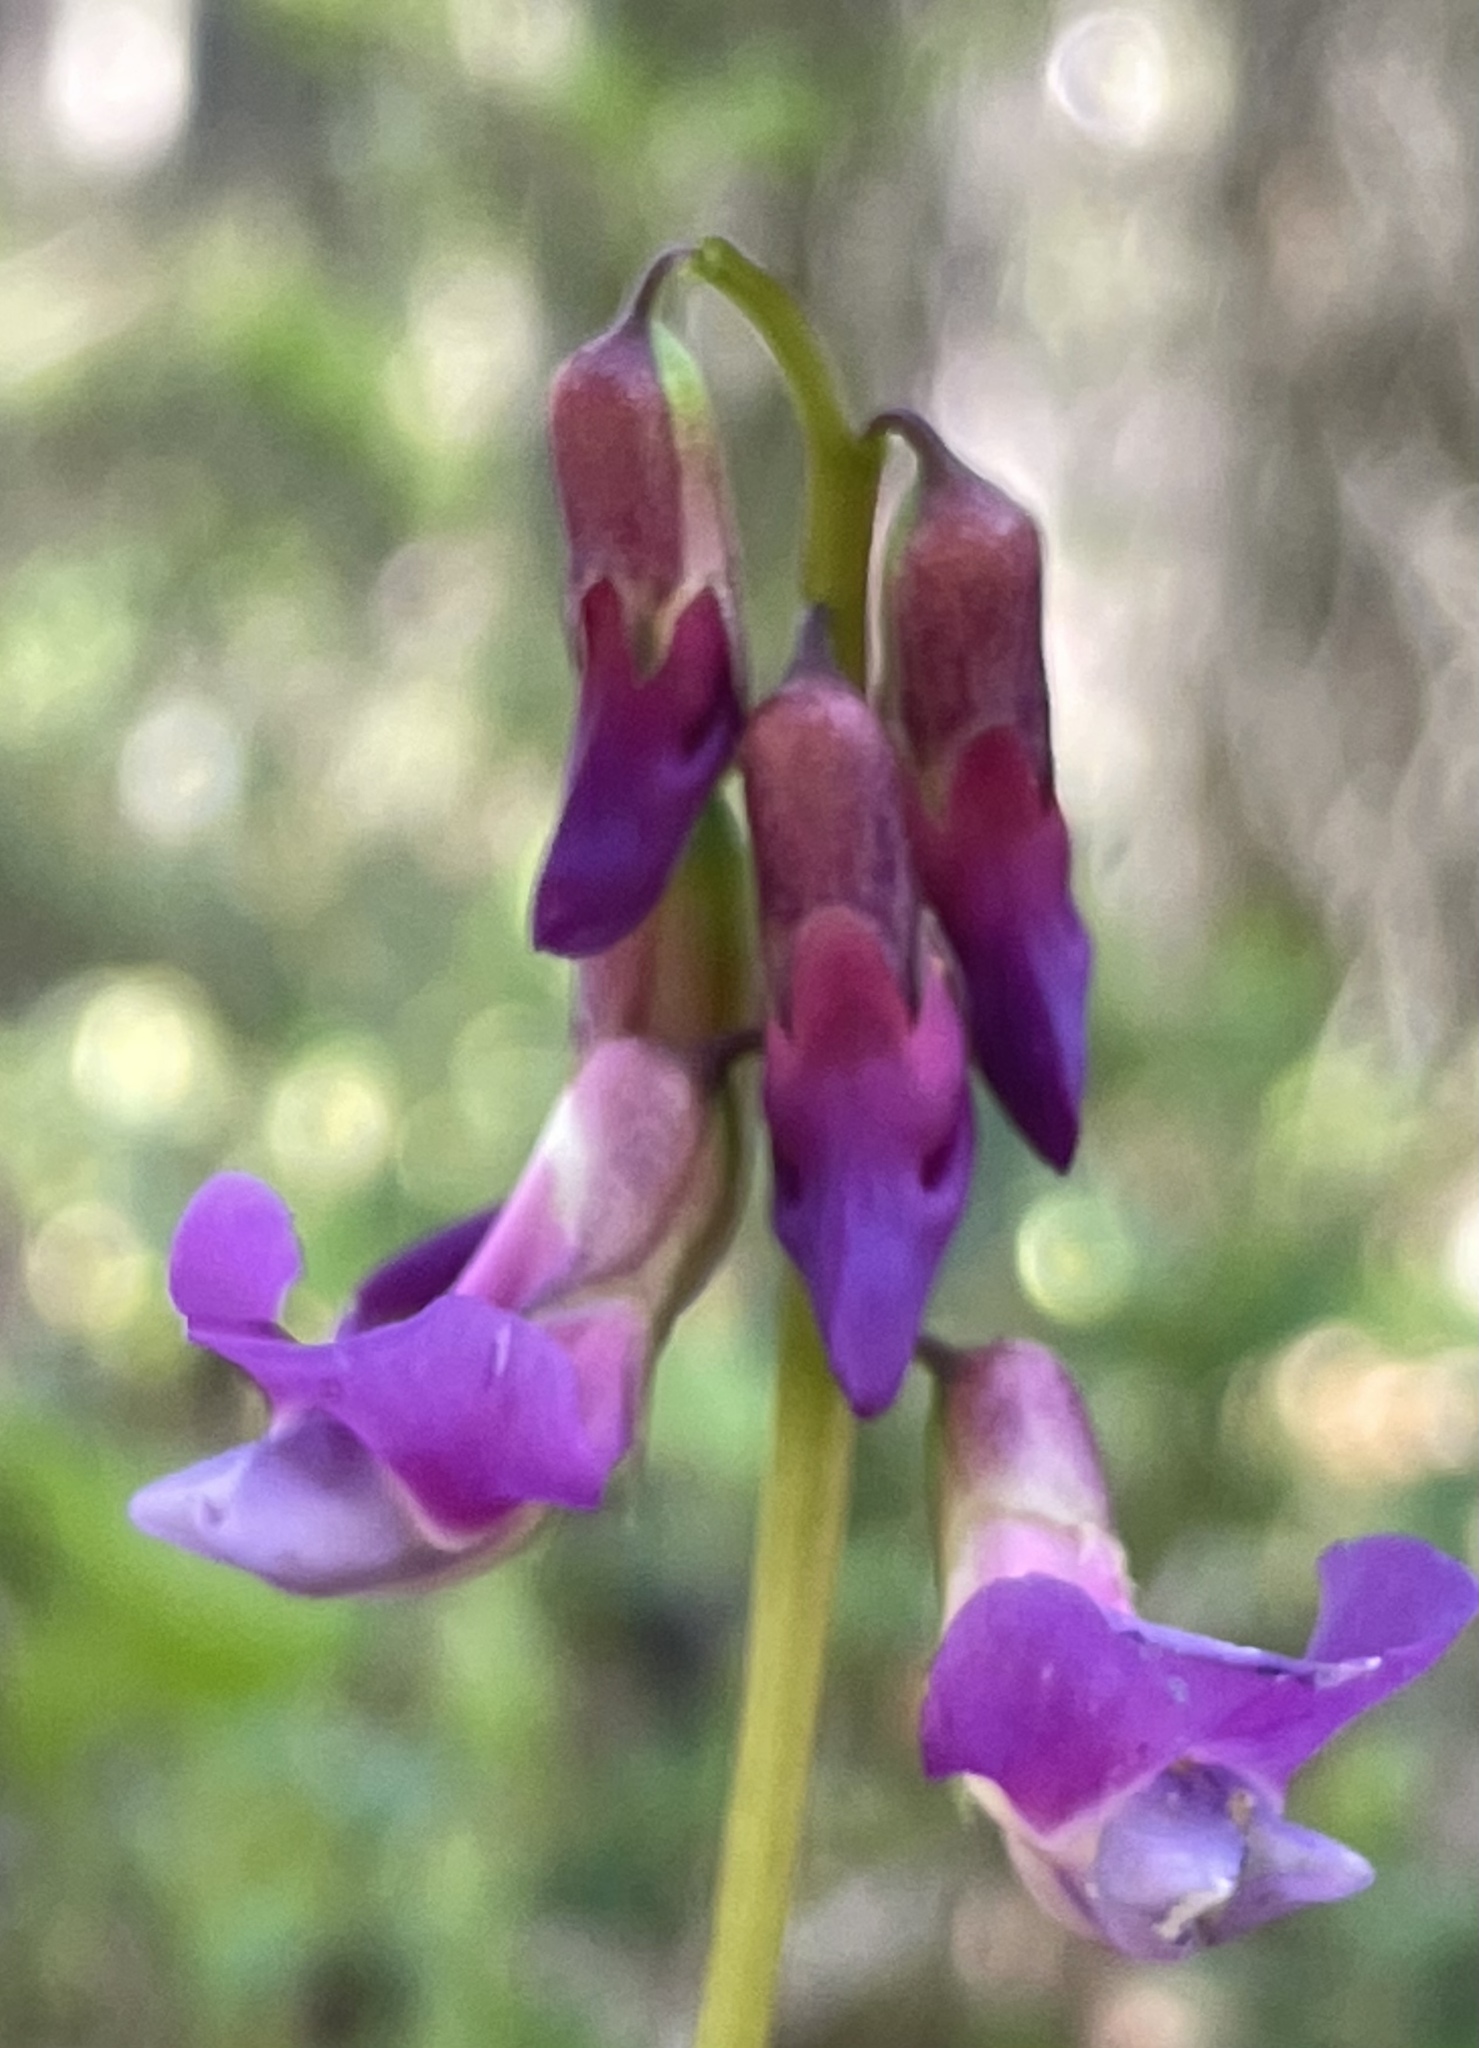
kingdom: Plantae
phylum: Tracheophyta
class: Magnoliopsida
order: Fabales
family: Fabaceae
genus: Lathyrus
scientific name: Lathyrus vernus
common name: Spring pea
